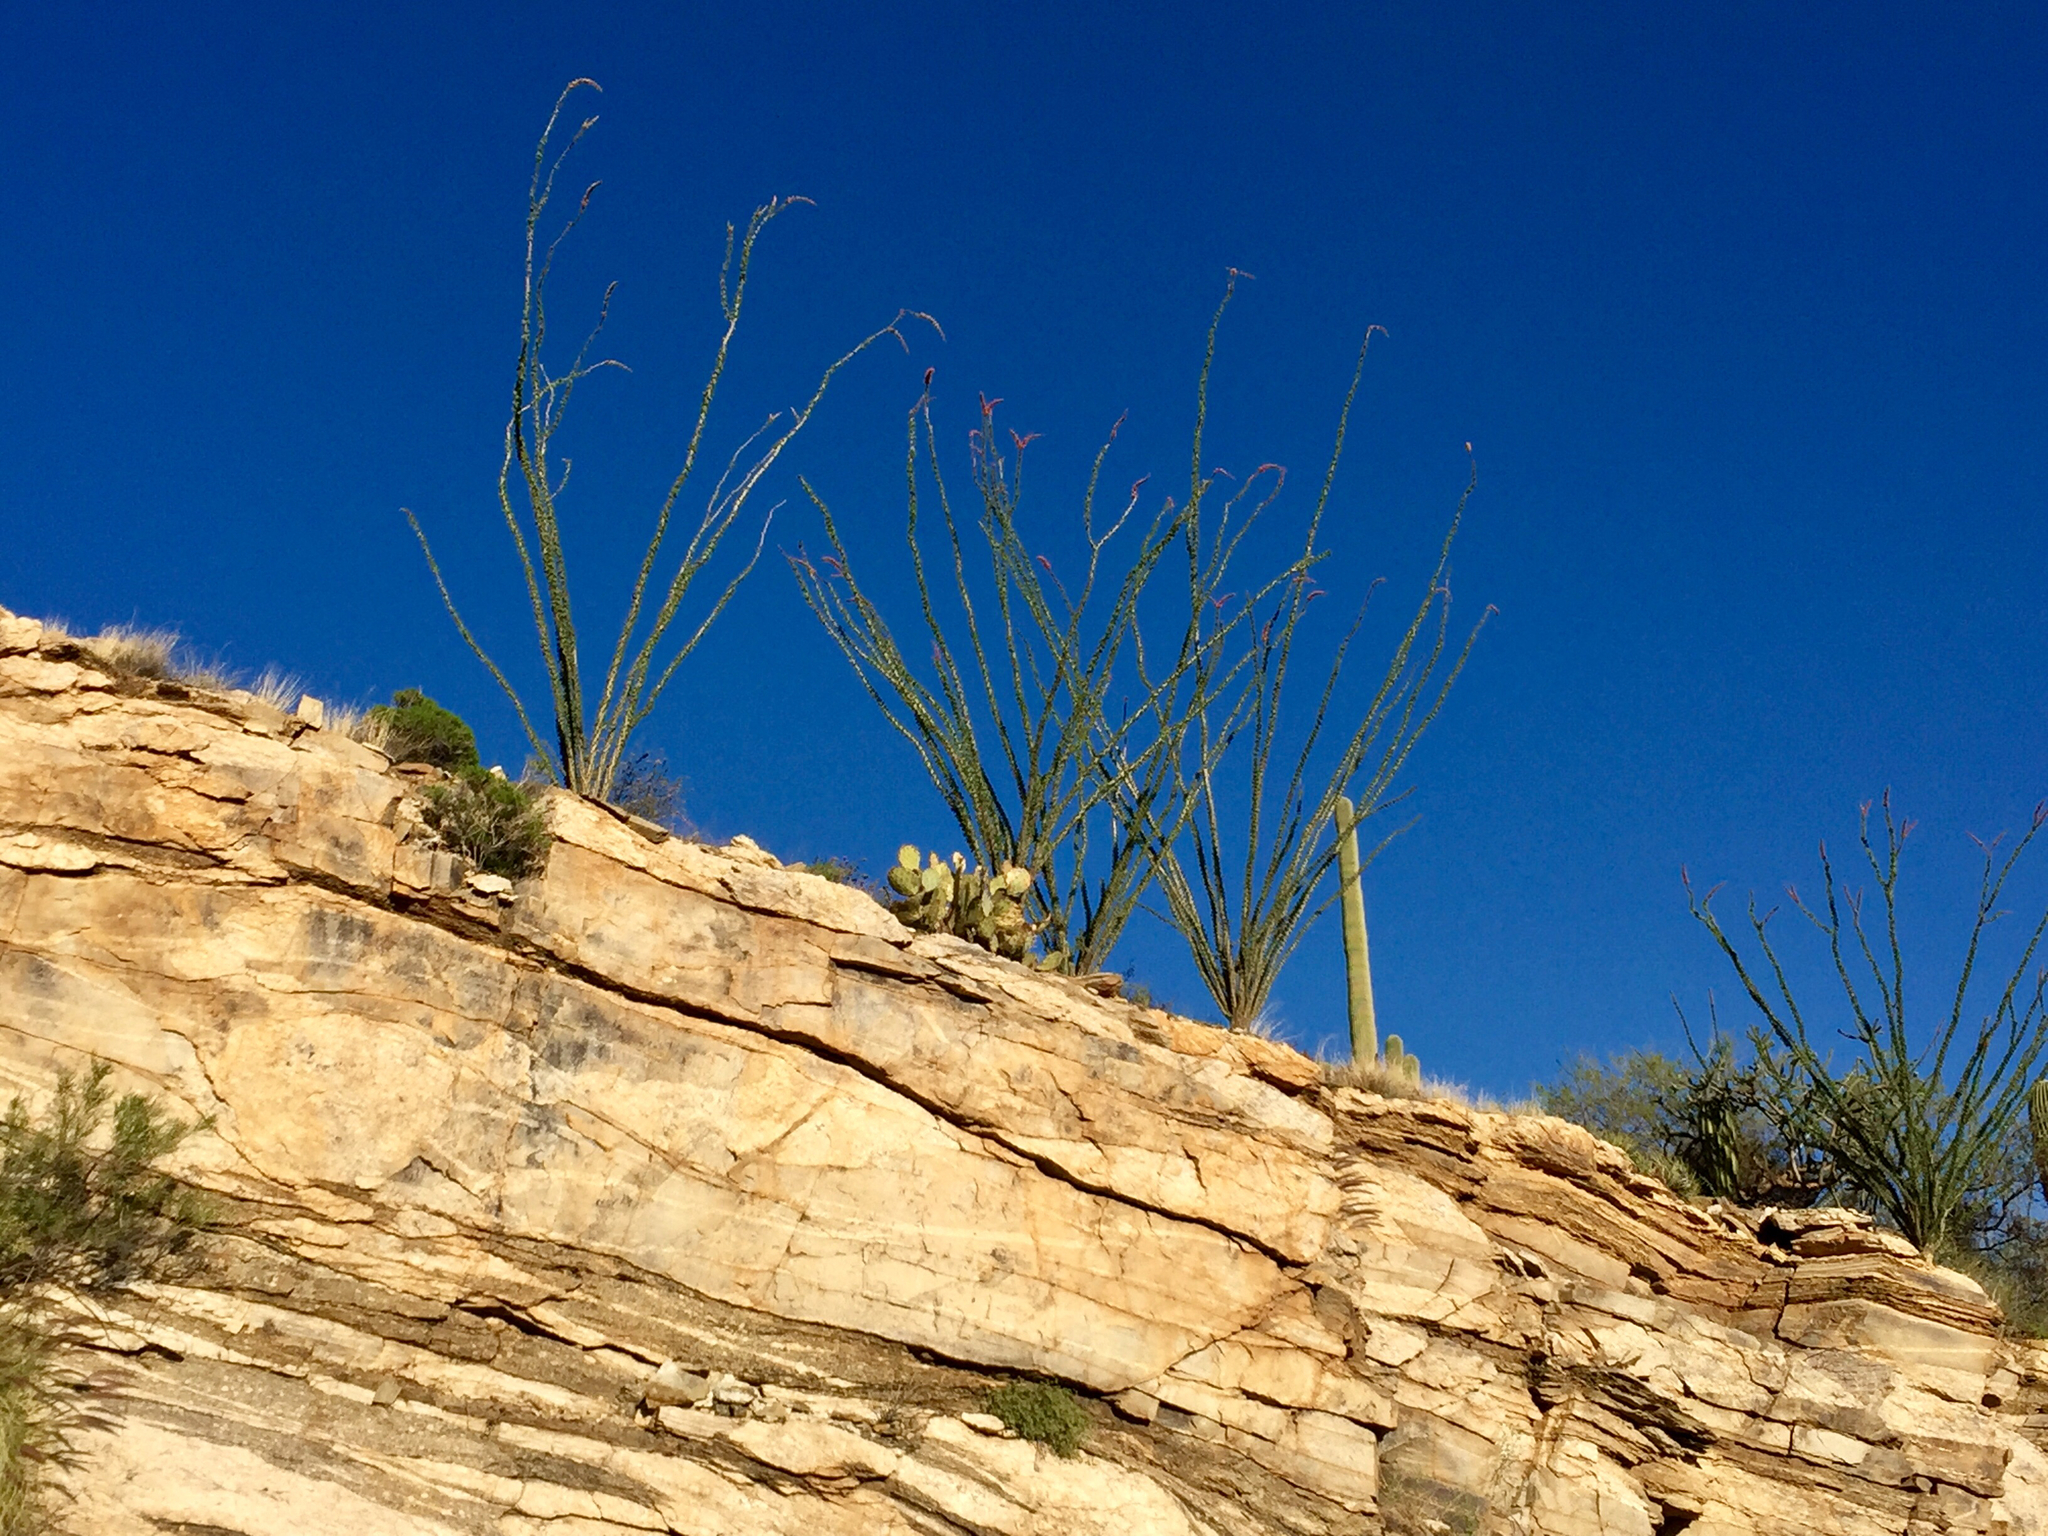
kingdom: Plantae
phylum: Tracheophyta
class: Magnoliopsida
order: Ericales
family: Fouquieriaceae
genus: Fouquieria
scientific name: Fouquieria splendens
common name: Vine-cactus
